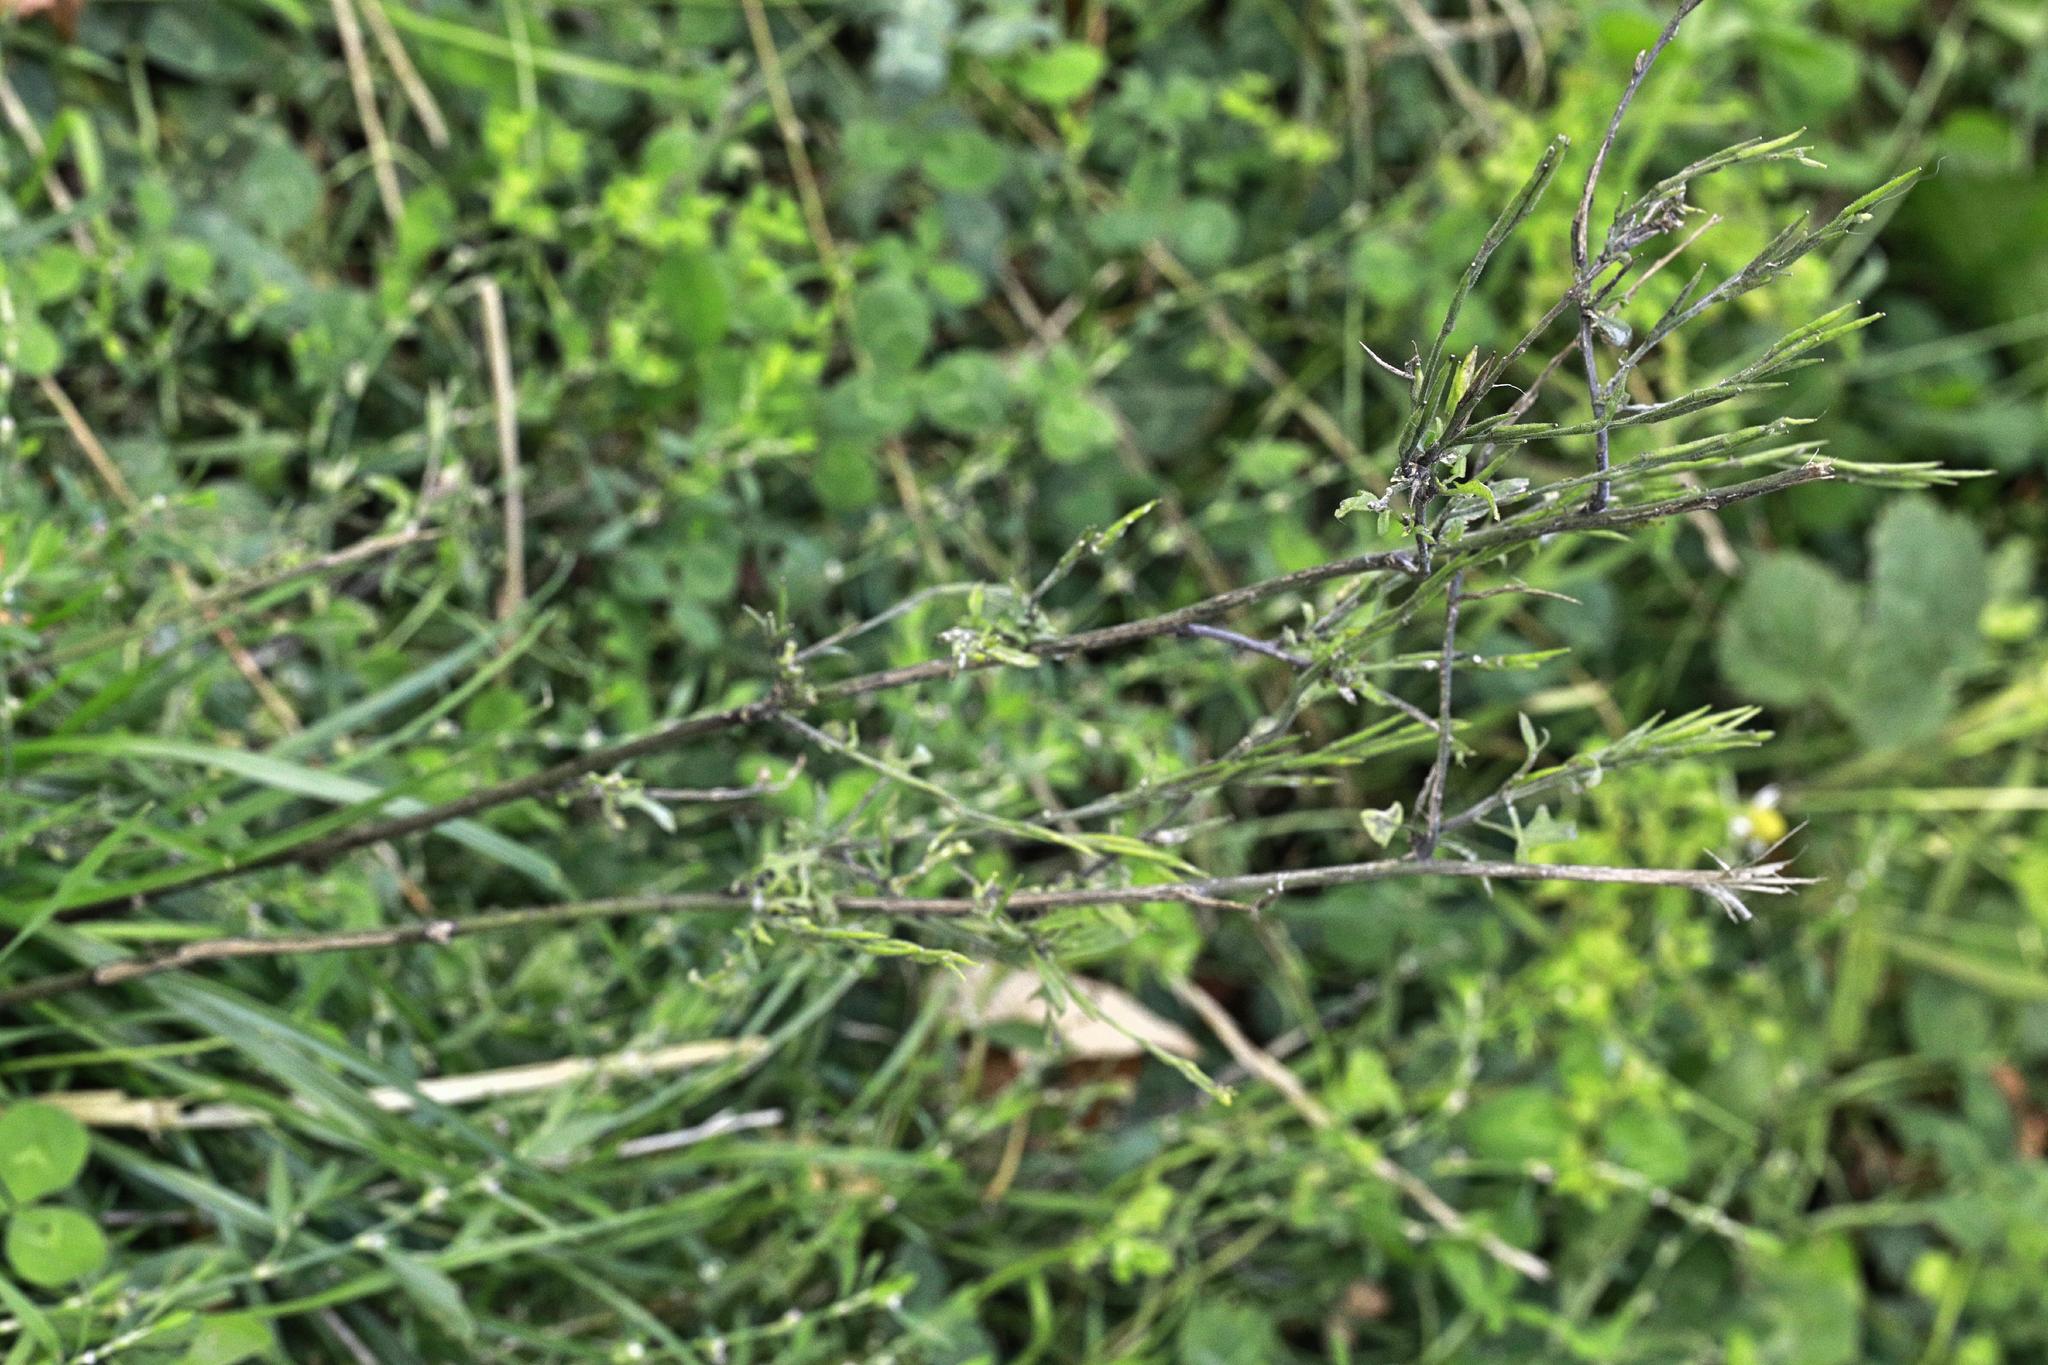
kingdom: Plantae
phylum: Tracheophyta
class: Magnoliopsida
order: Brassicales
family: Brassicaceae
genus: Sisymbrium
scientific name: Sisymbrium officinale
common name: Hedge mustard
